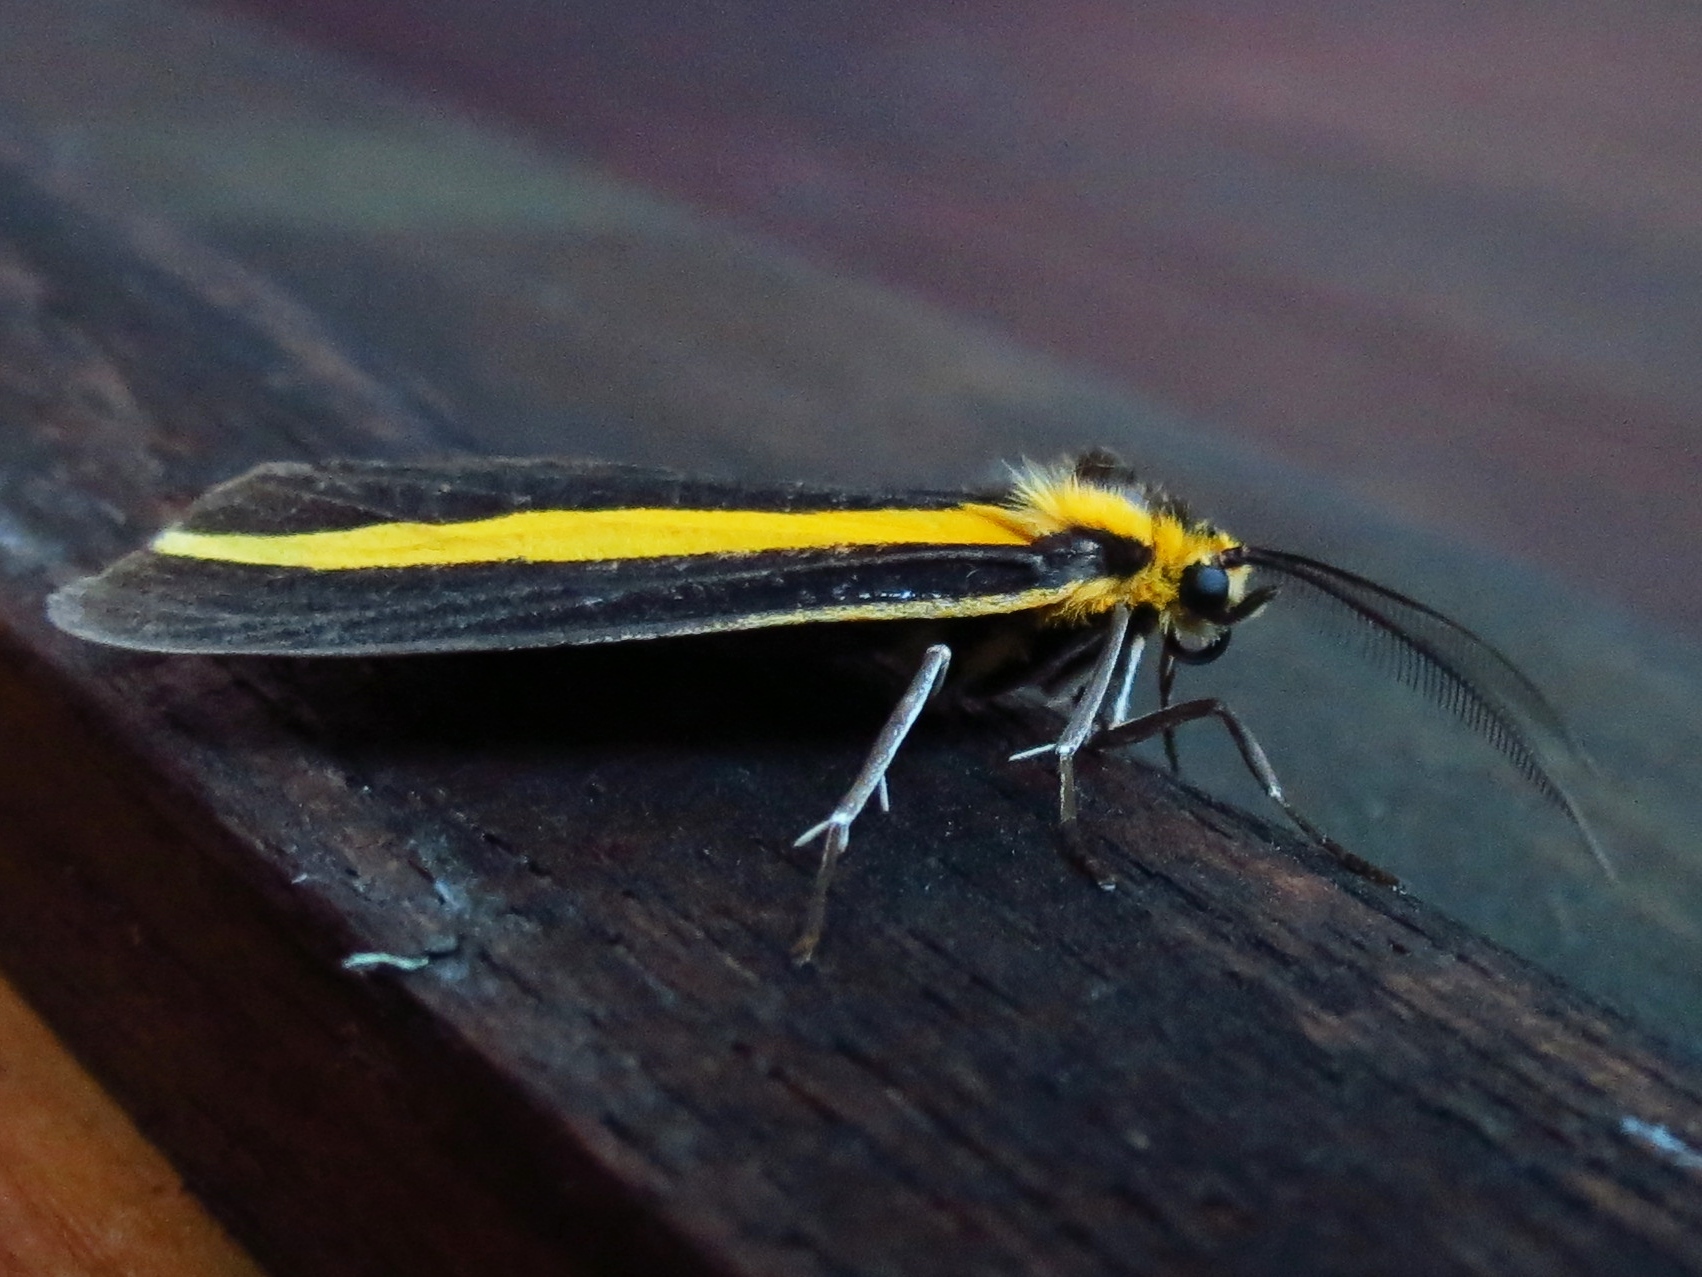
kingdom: Animalia
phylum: Arthropoda
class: Insecta
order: Lepidoptera
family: Notodontidae
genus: Josia
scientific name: Josia gigantea
